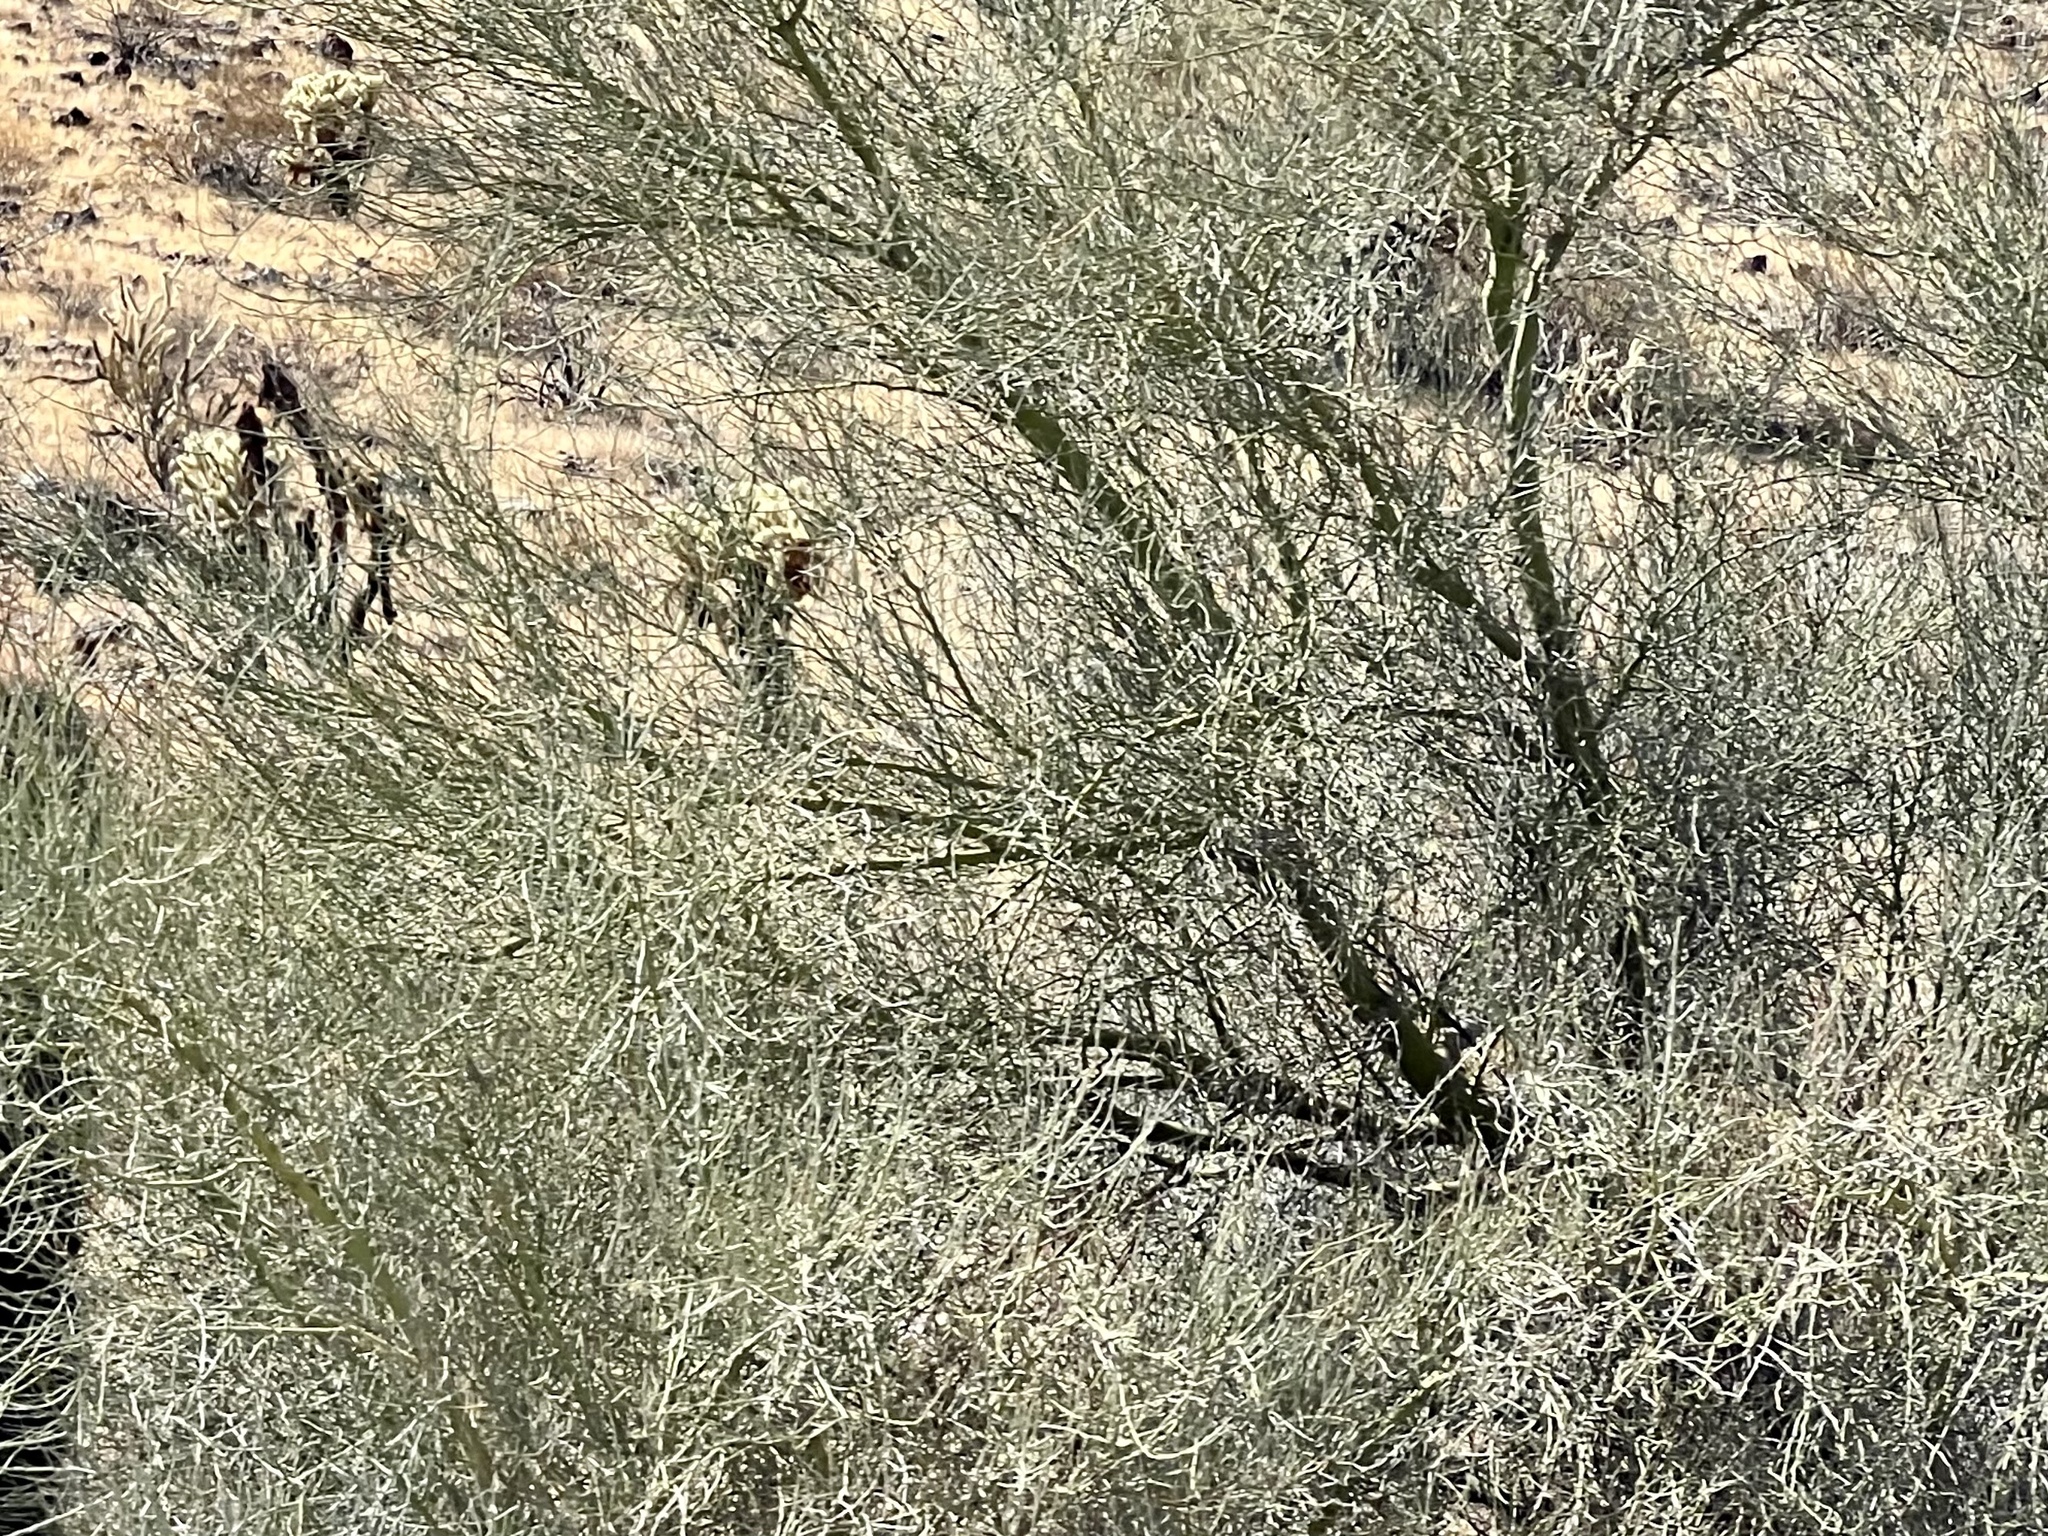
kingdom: Plantae
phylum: Tracheophyta
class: Magnoliopsida
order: Fabales
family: Fabaceae
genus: Parkinsonia
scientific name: Parkinsonia florida
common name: Blue paloverde
